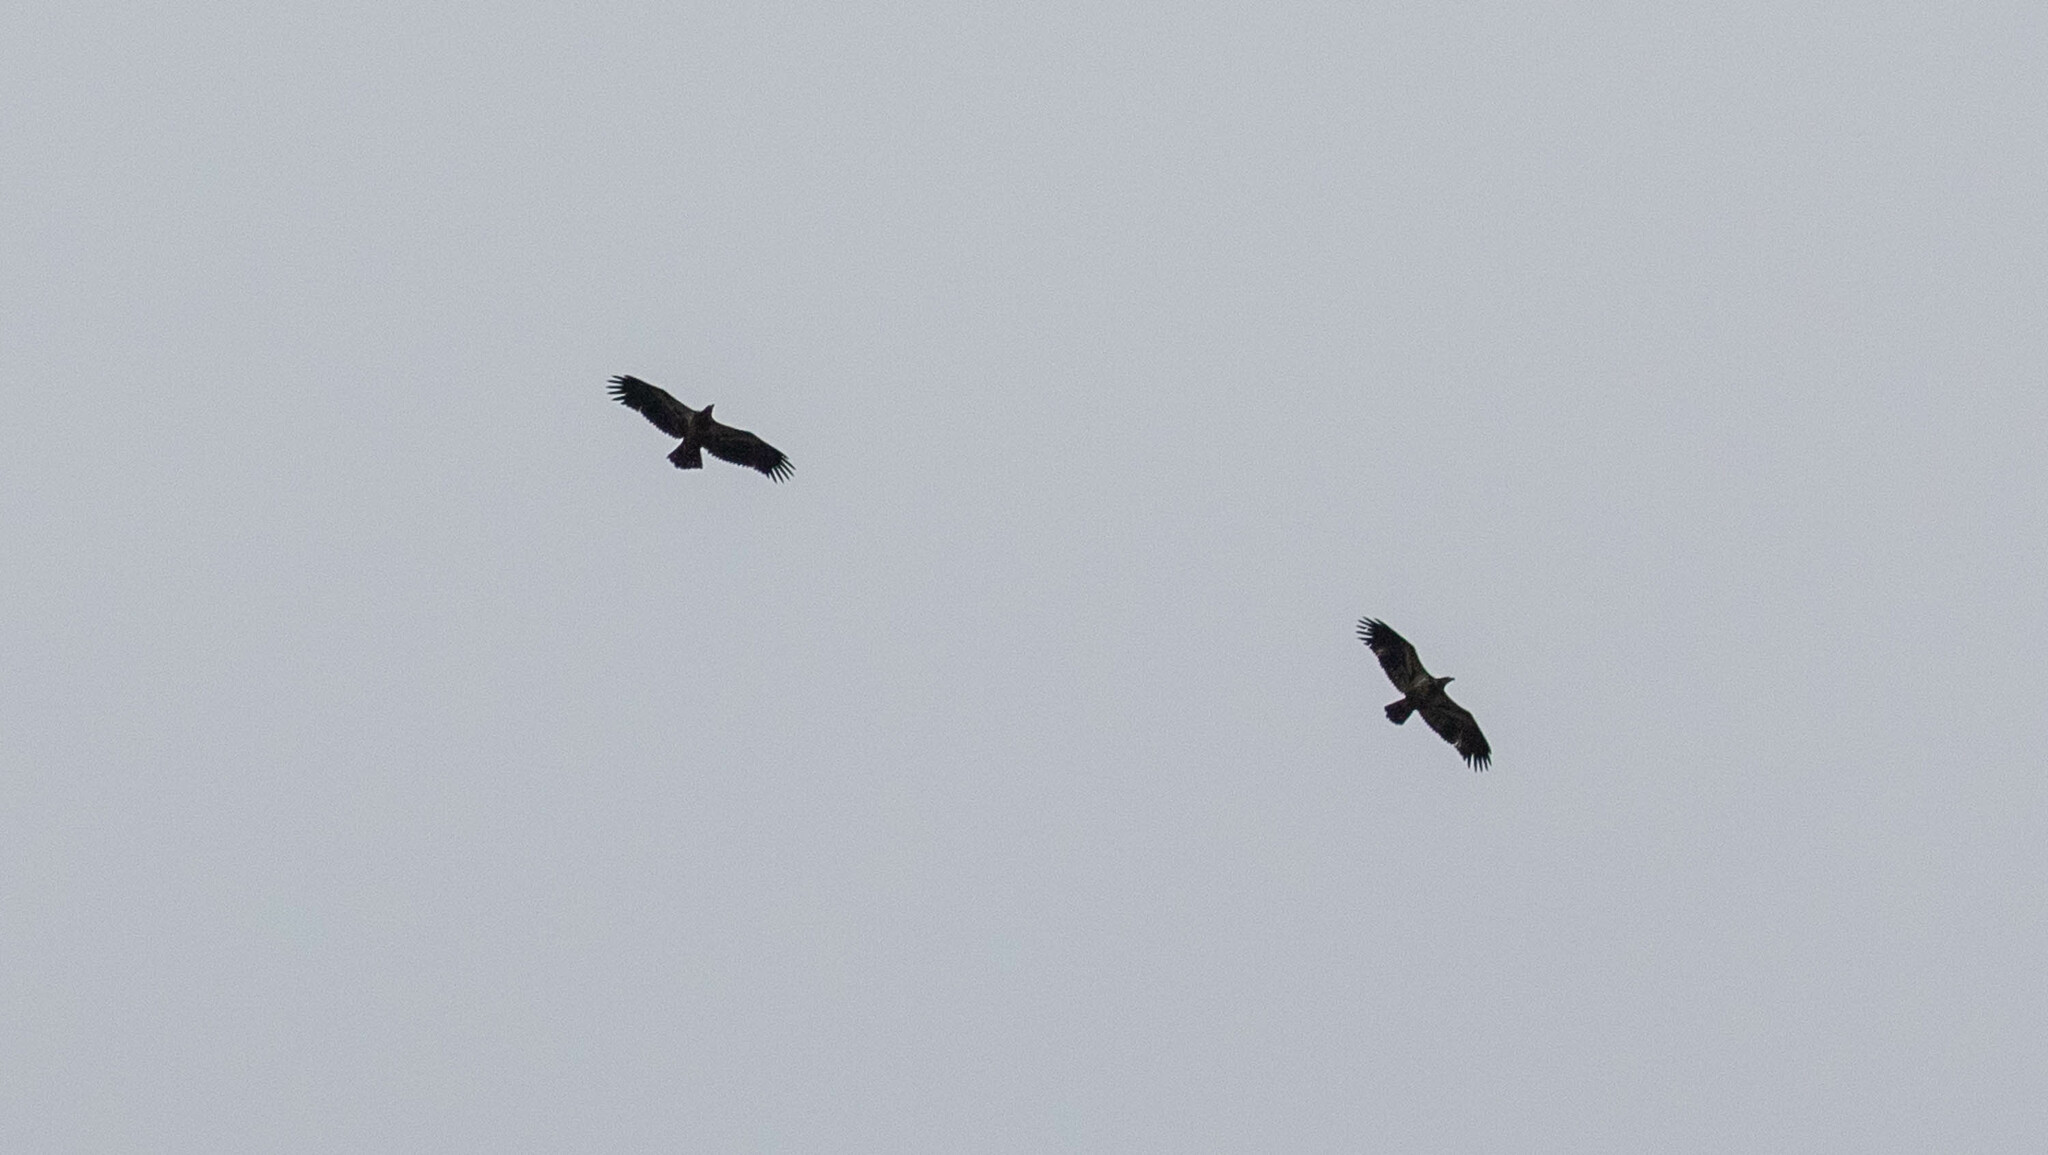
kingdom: Animalia
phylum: Chordata
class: Aves
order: Accipitriformes
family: Accipitridae
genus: Haliaeetus
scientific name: Haliaeetus leucocephalus
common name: Bald eagle
